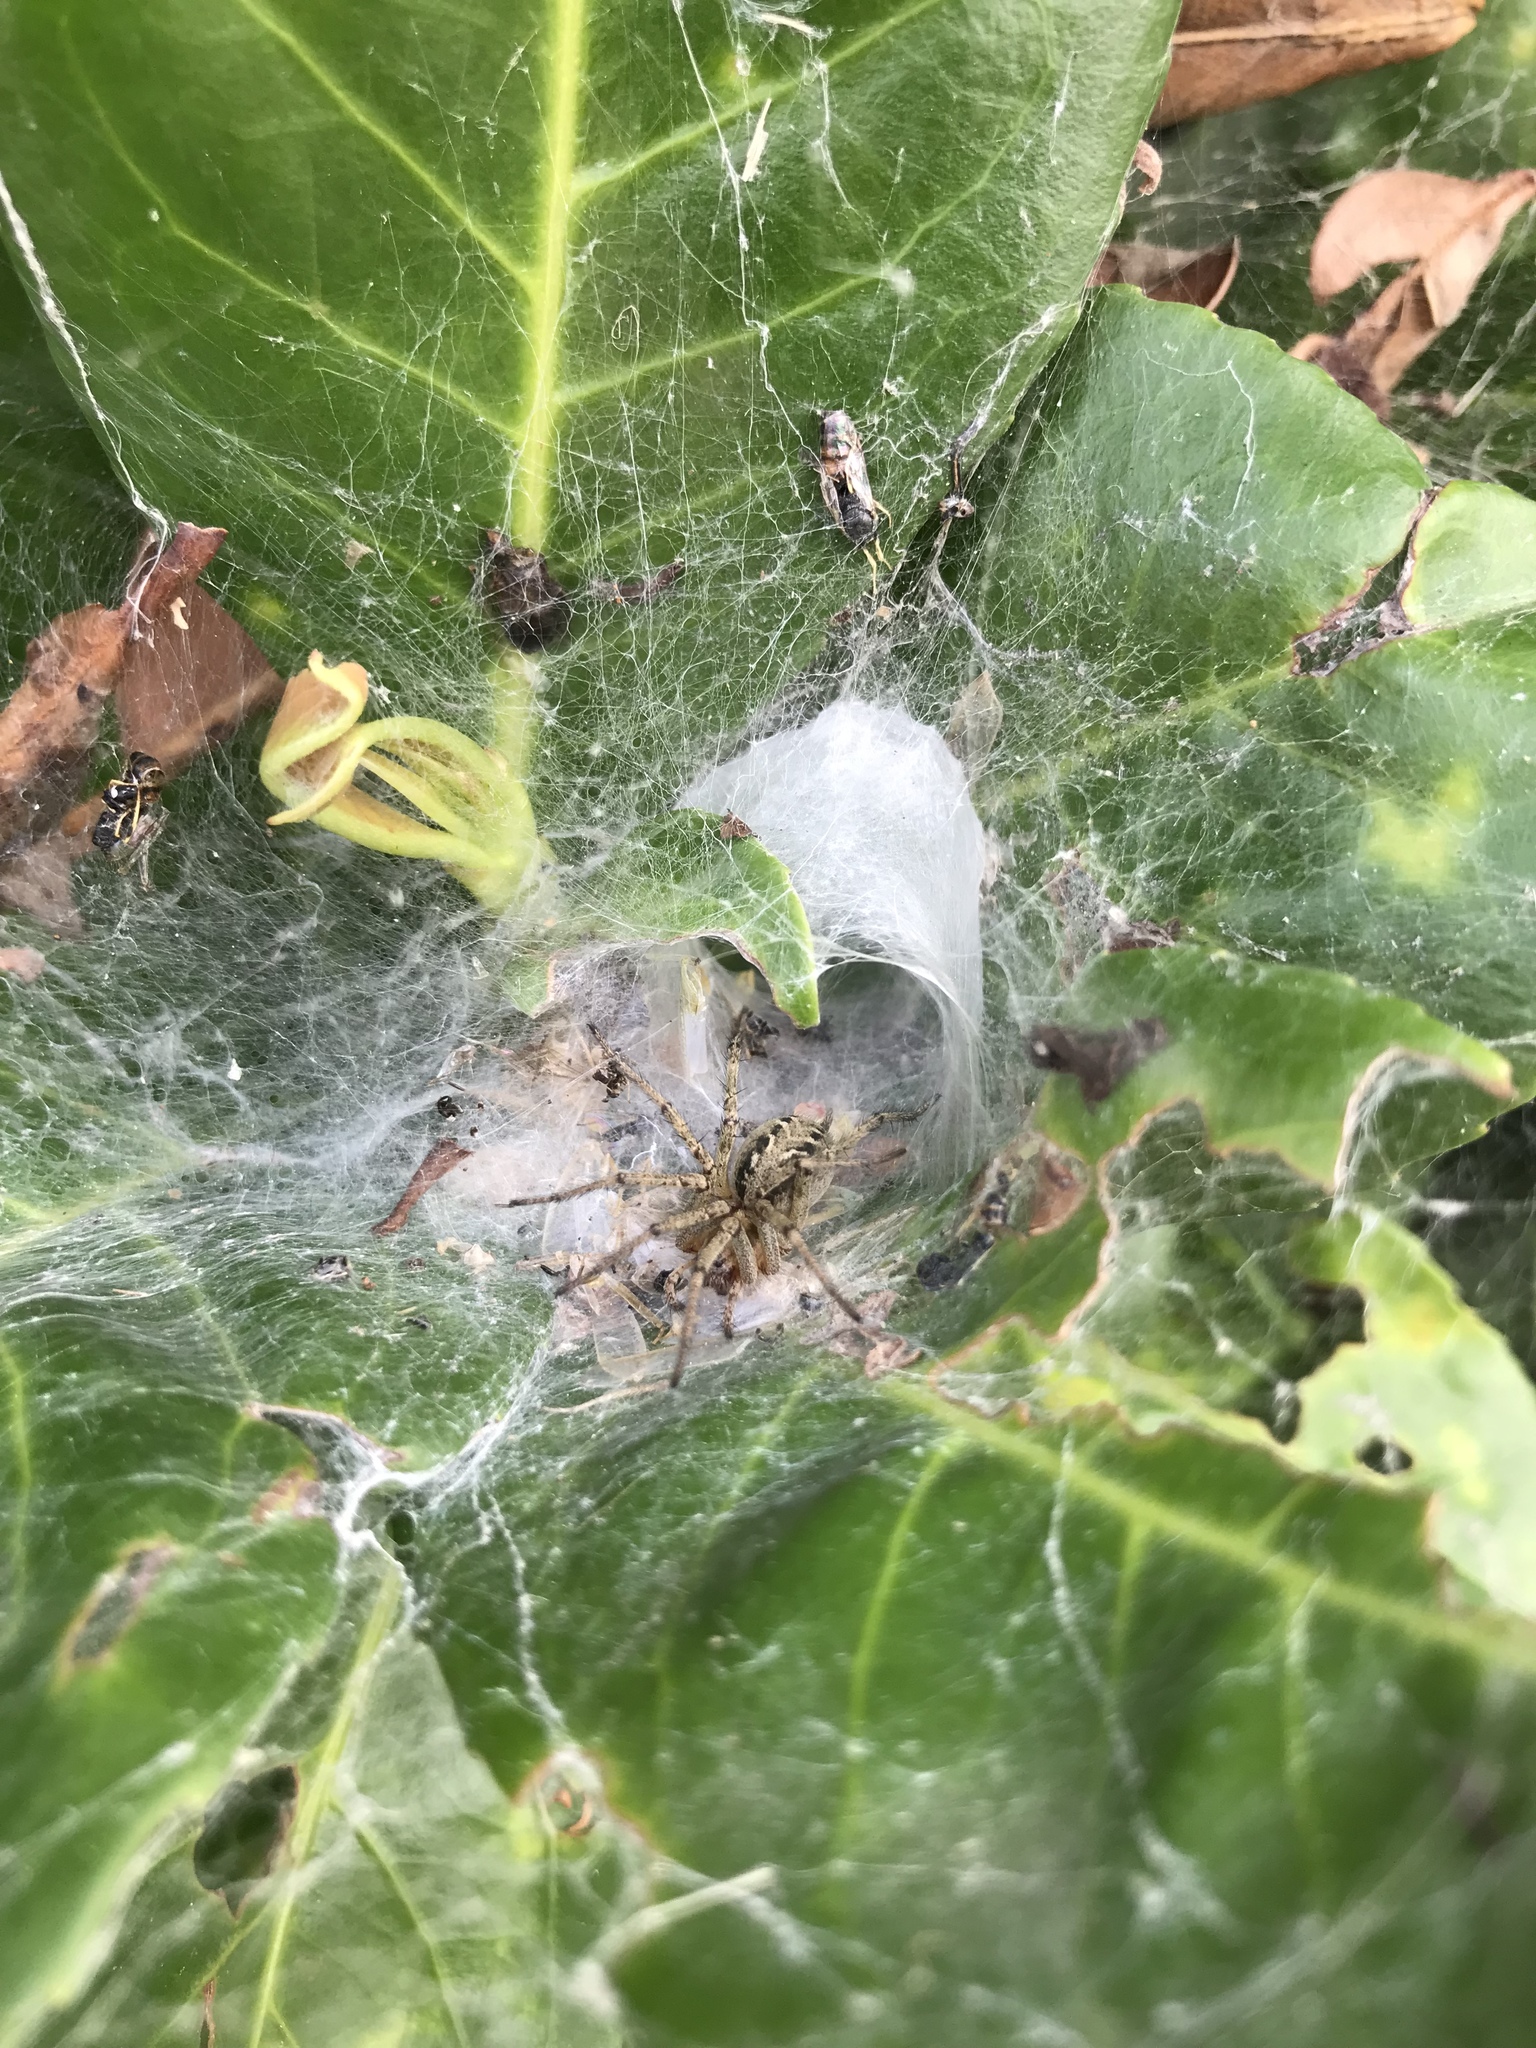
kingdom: Animalia
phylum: Arthropoda
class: Arachnida
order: Araneae
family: Agelenidae
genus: Agelena
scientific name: Agelena labyrinthica
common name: Labyrinth spider
